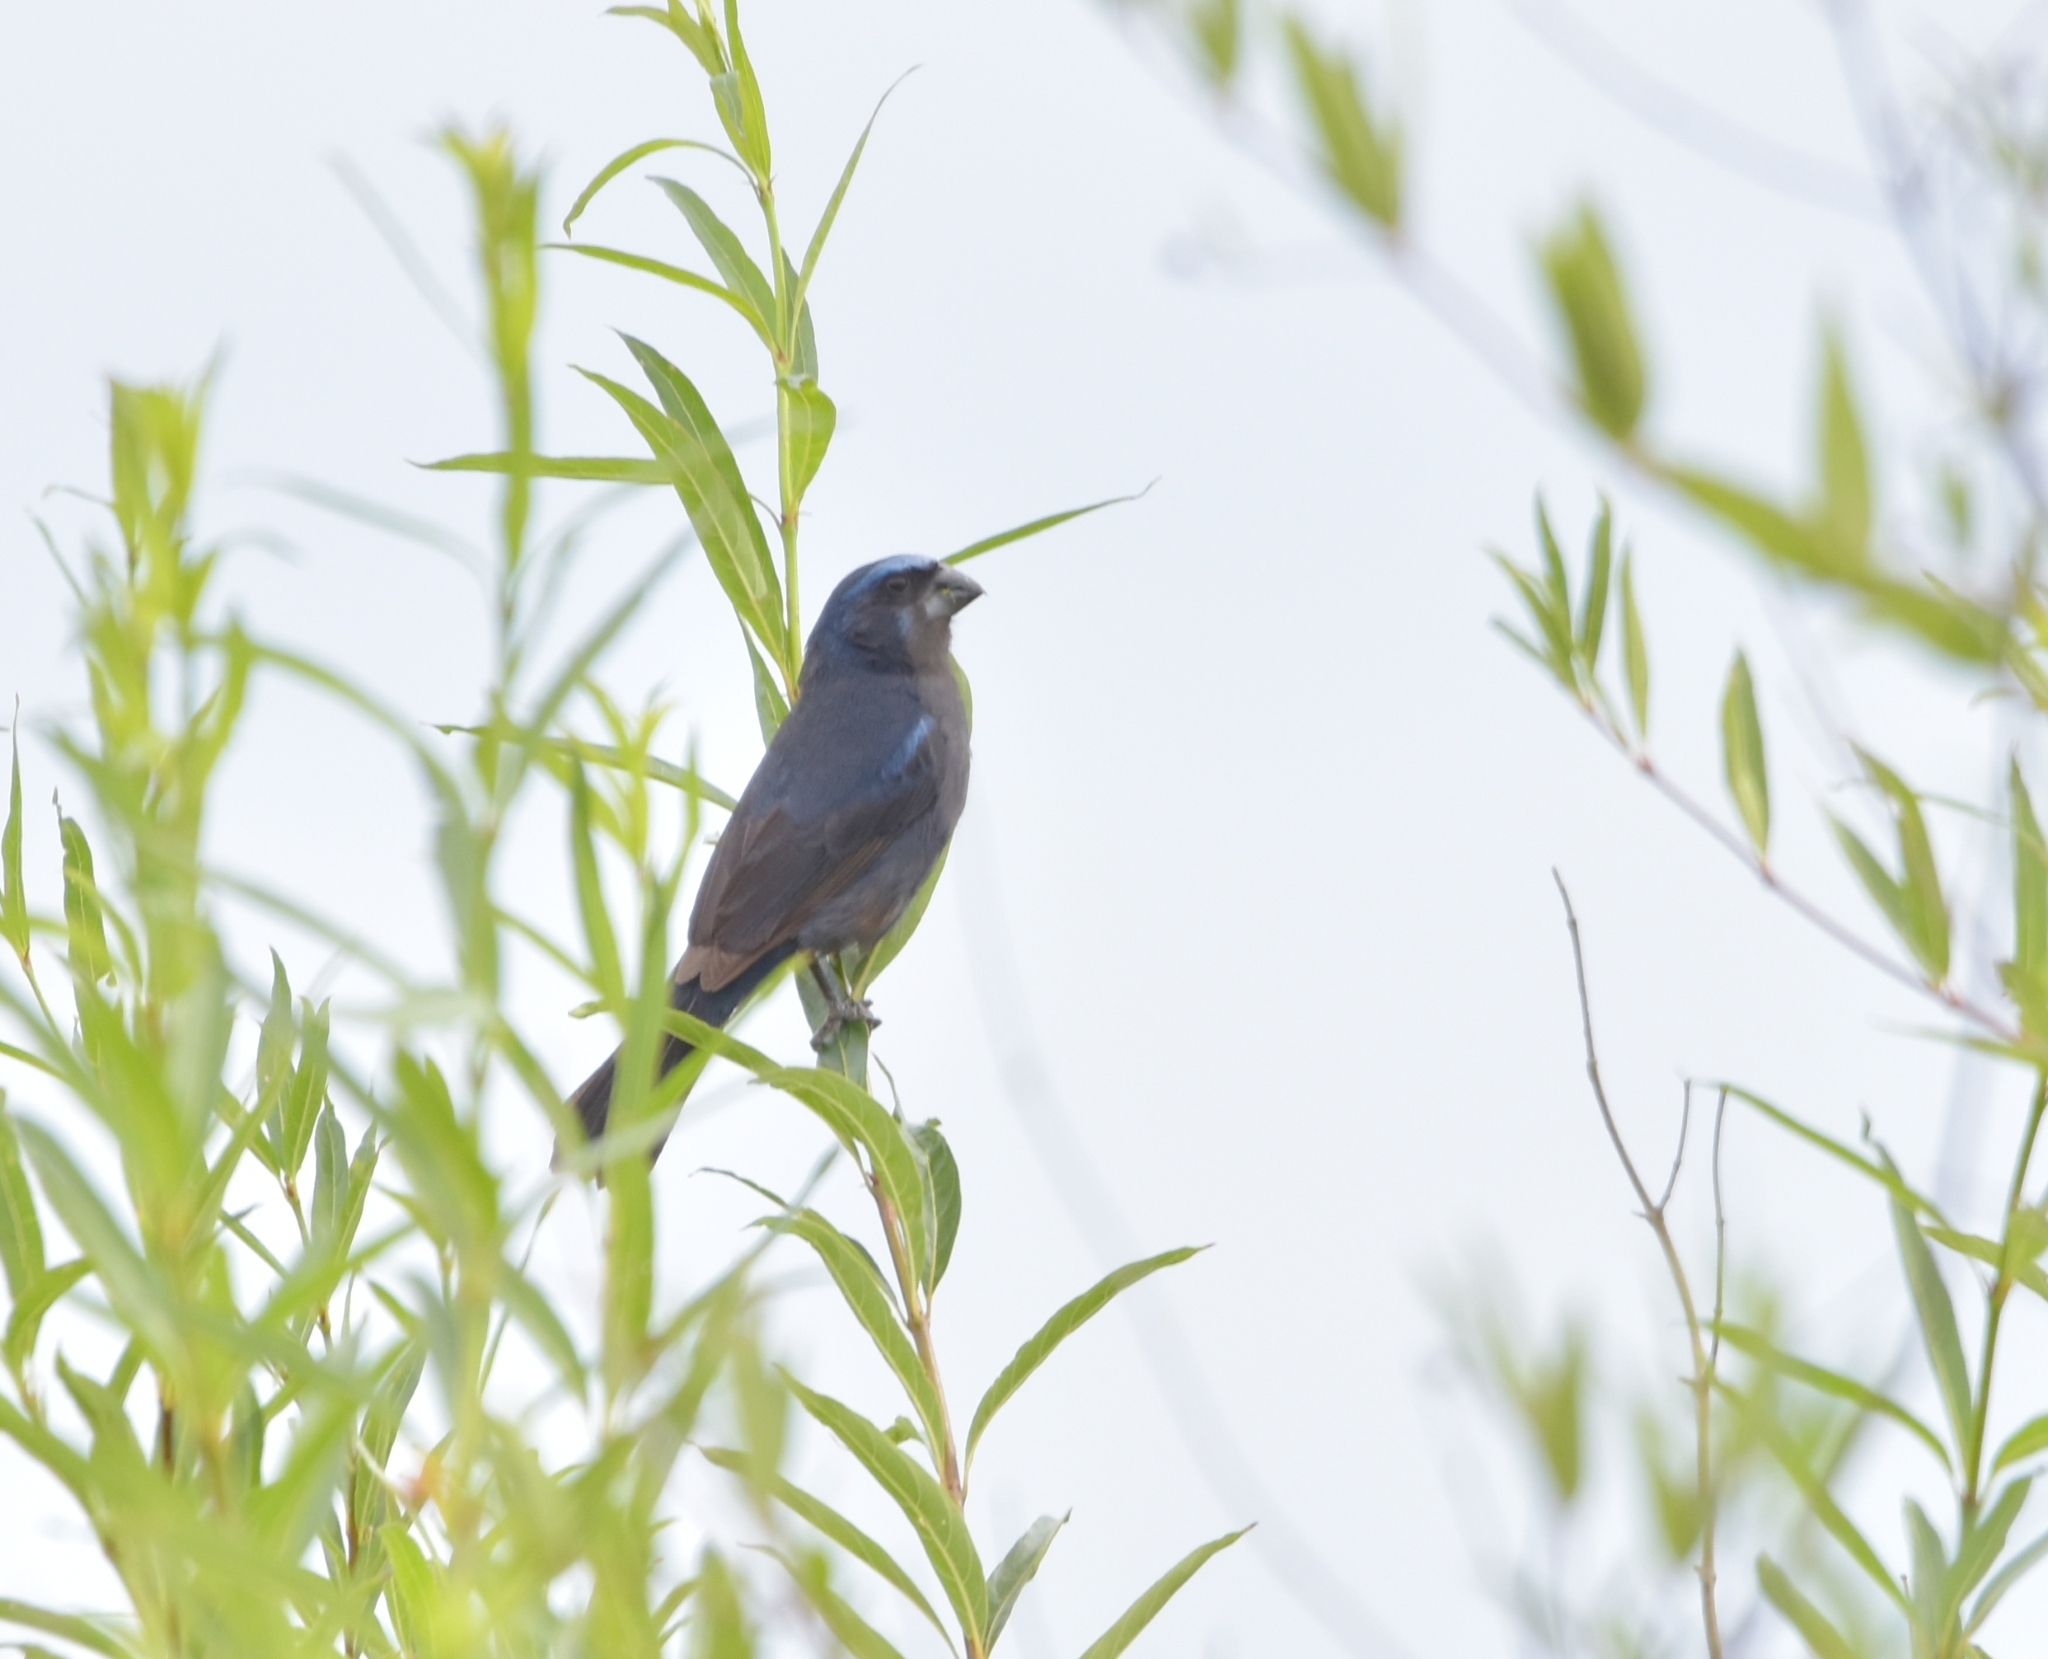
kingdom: Animalia
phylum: Chordata
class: Aves
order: Passeriformes
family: Cardinalidae
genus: Cyanoloxia
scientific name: Cyanoloxia brissonii
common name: Ultramarine grosbeak
